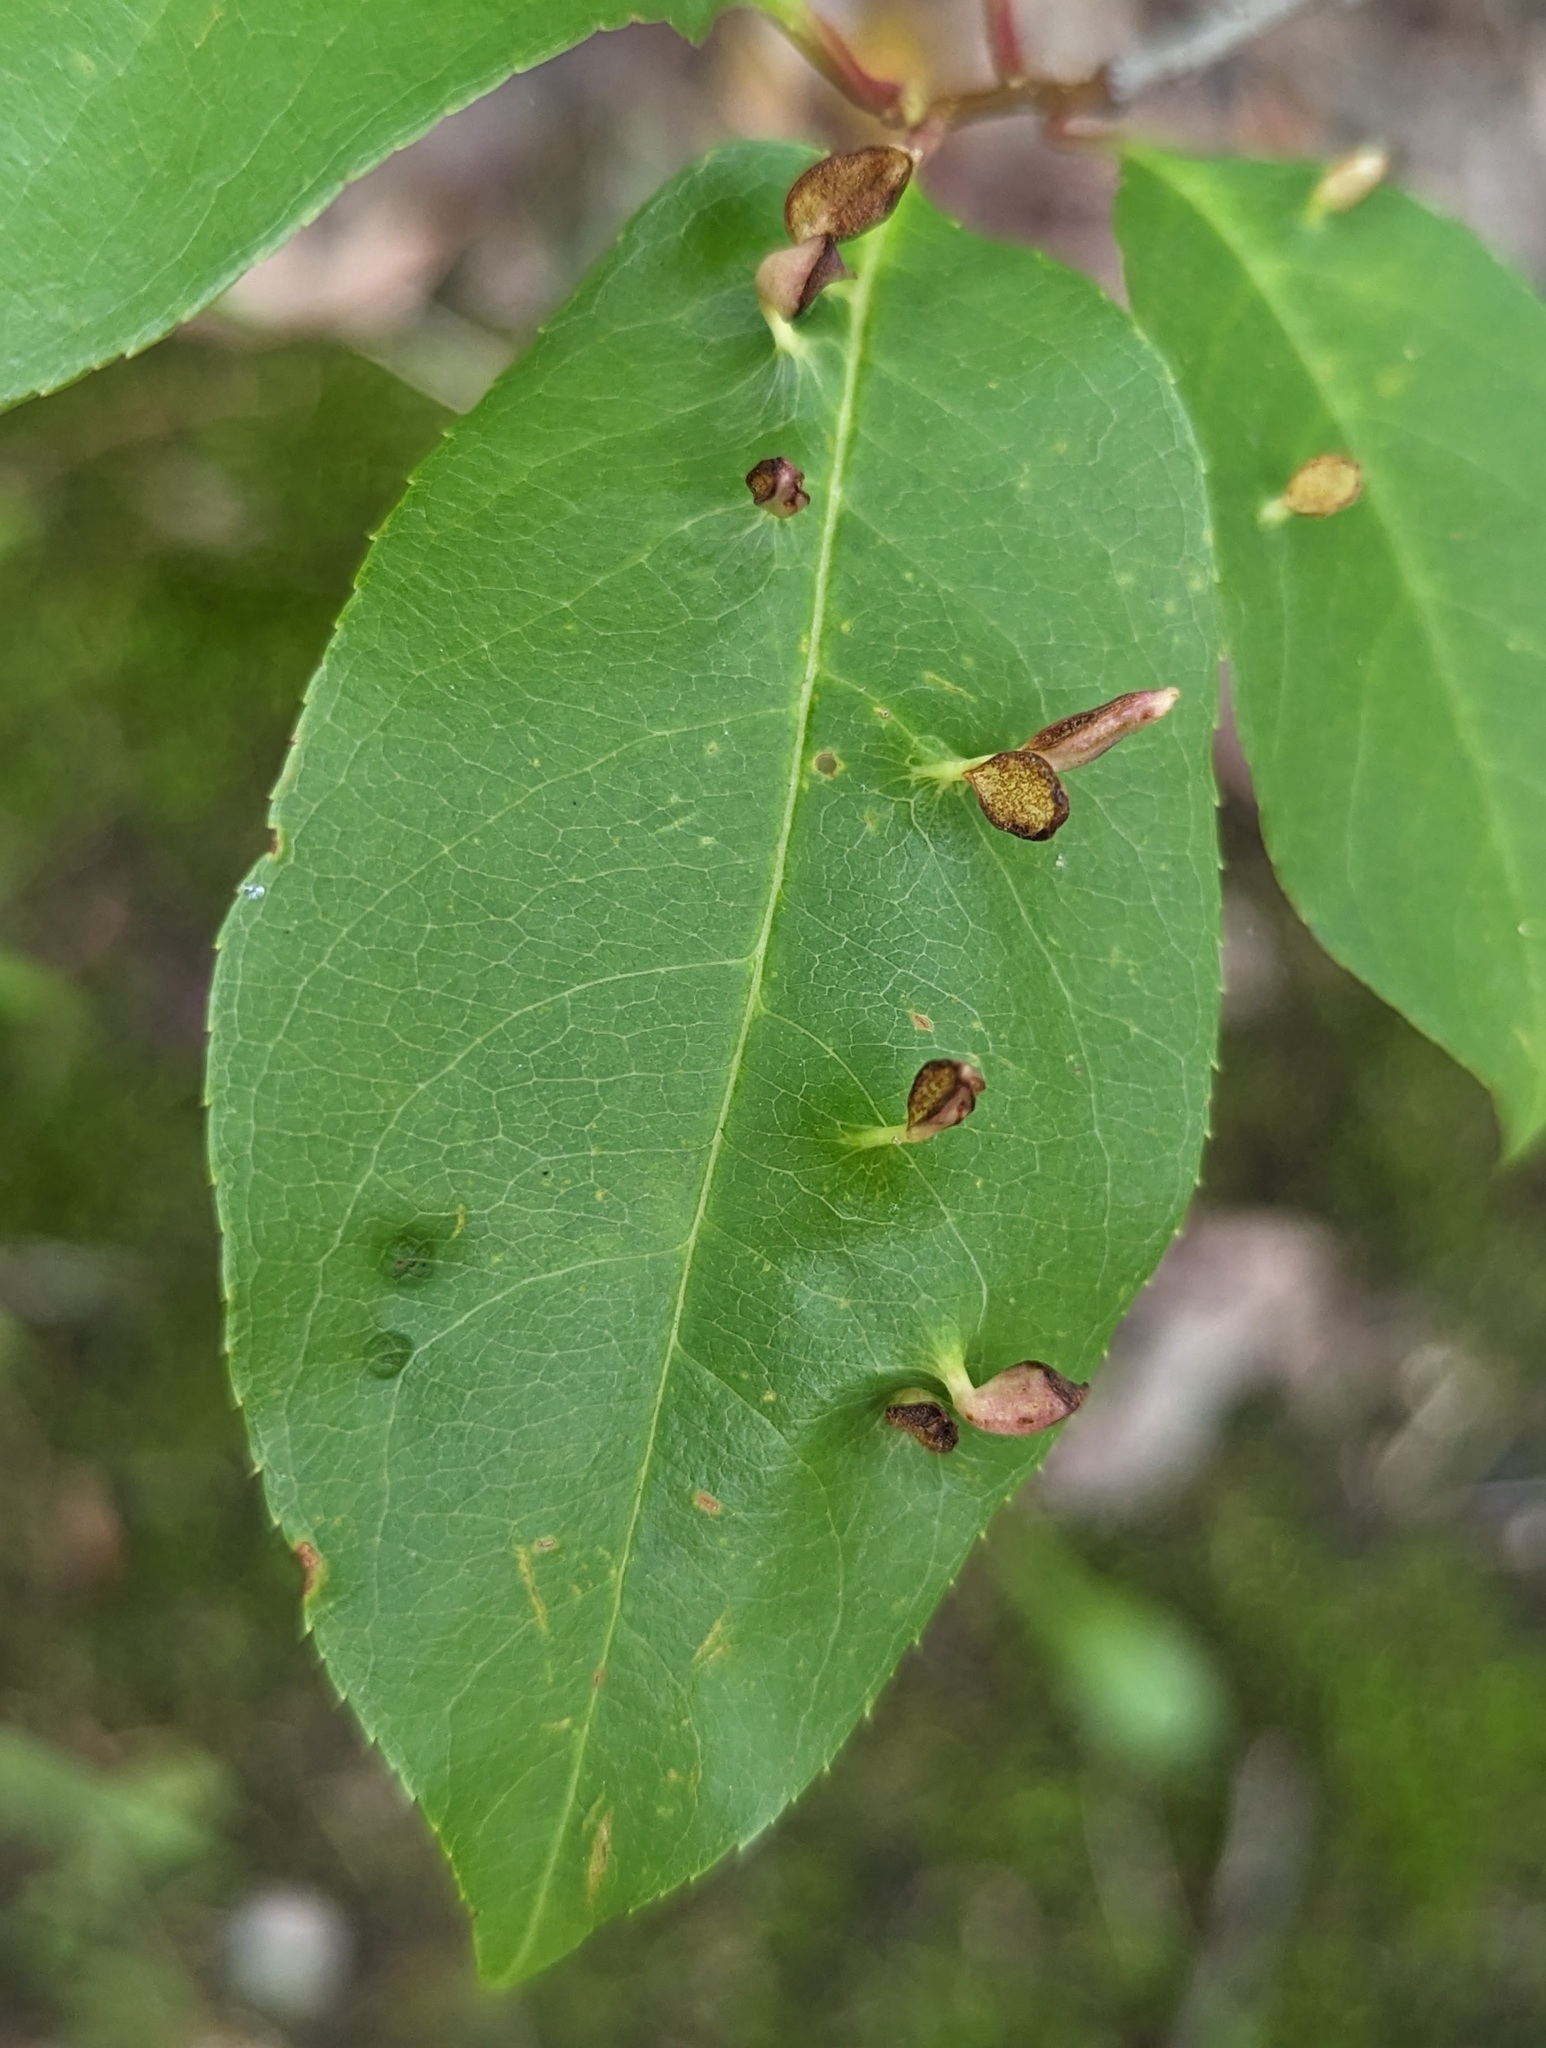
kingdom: Animalia
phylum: Arthropoda
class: Arachnida
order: Trombidiformes
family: Eriophyidae
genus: Eriophyes
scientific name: Eriophyes
